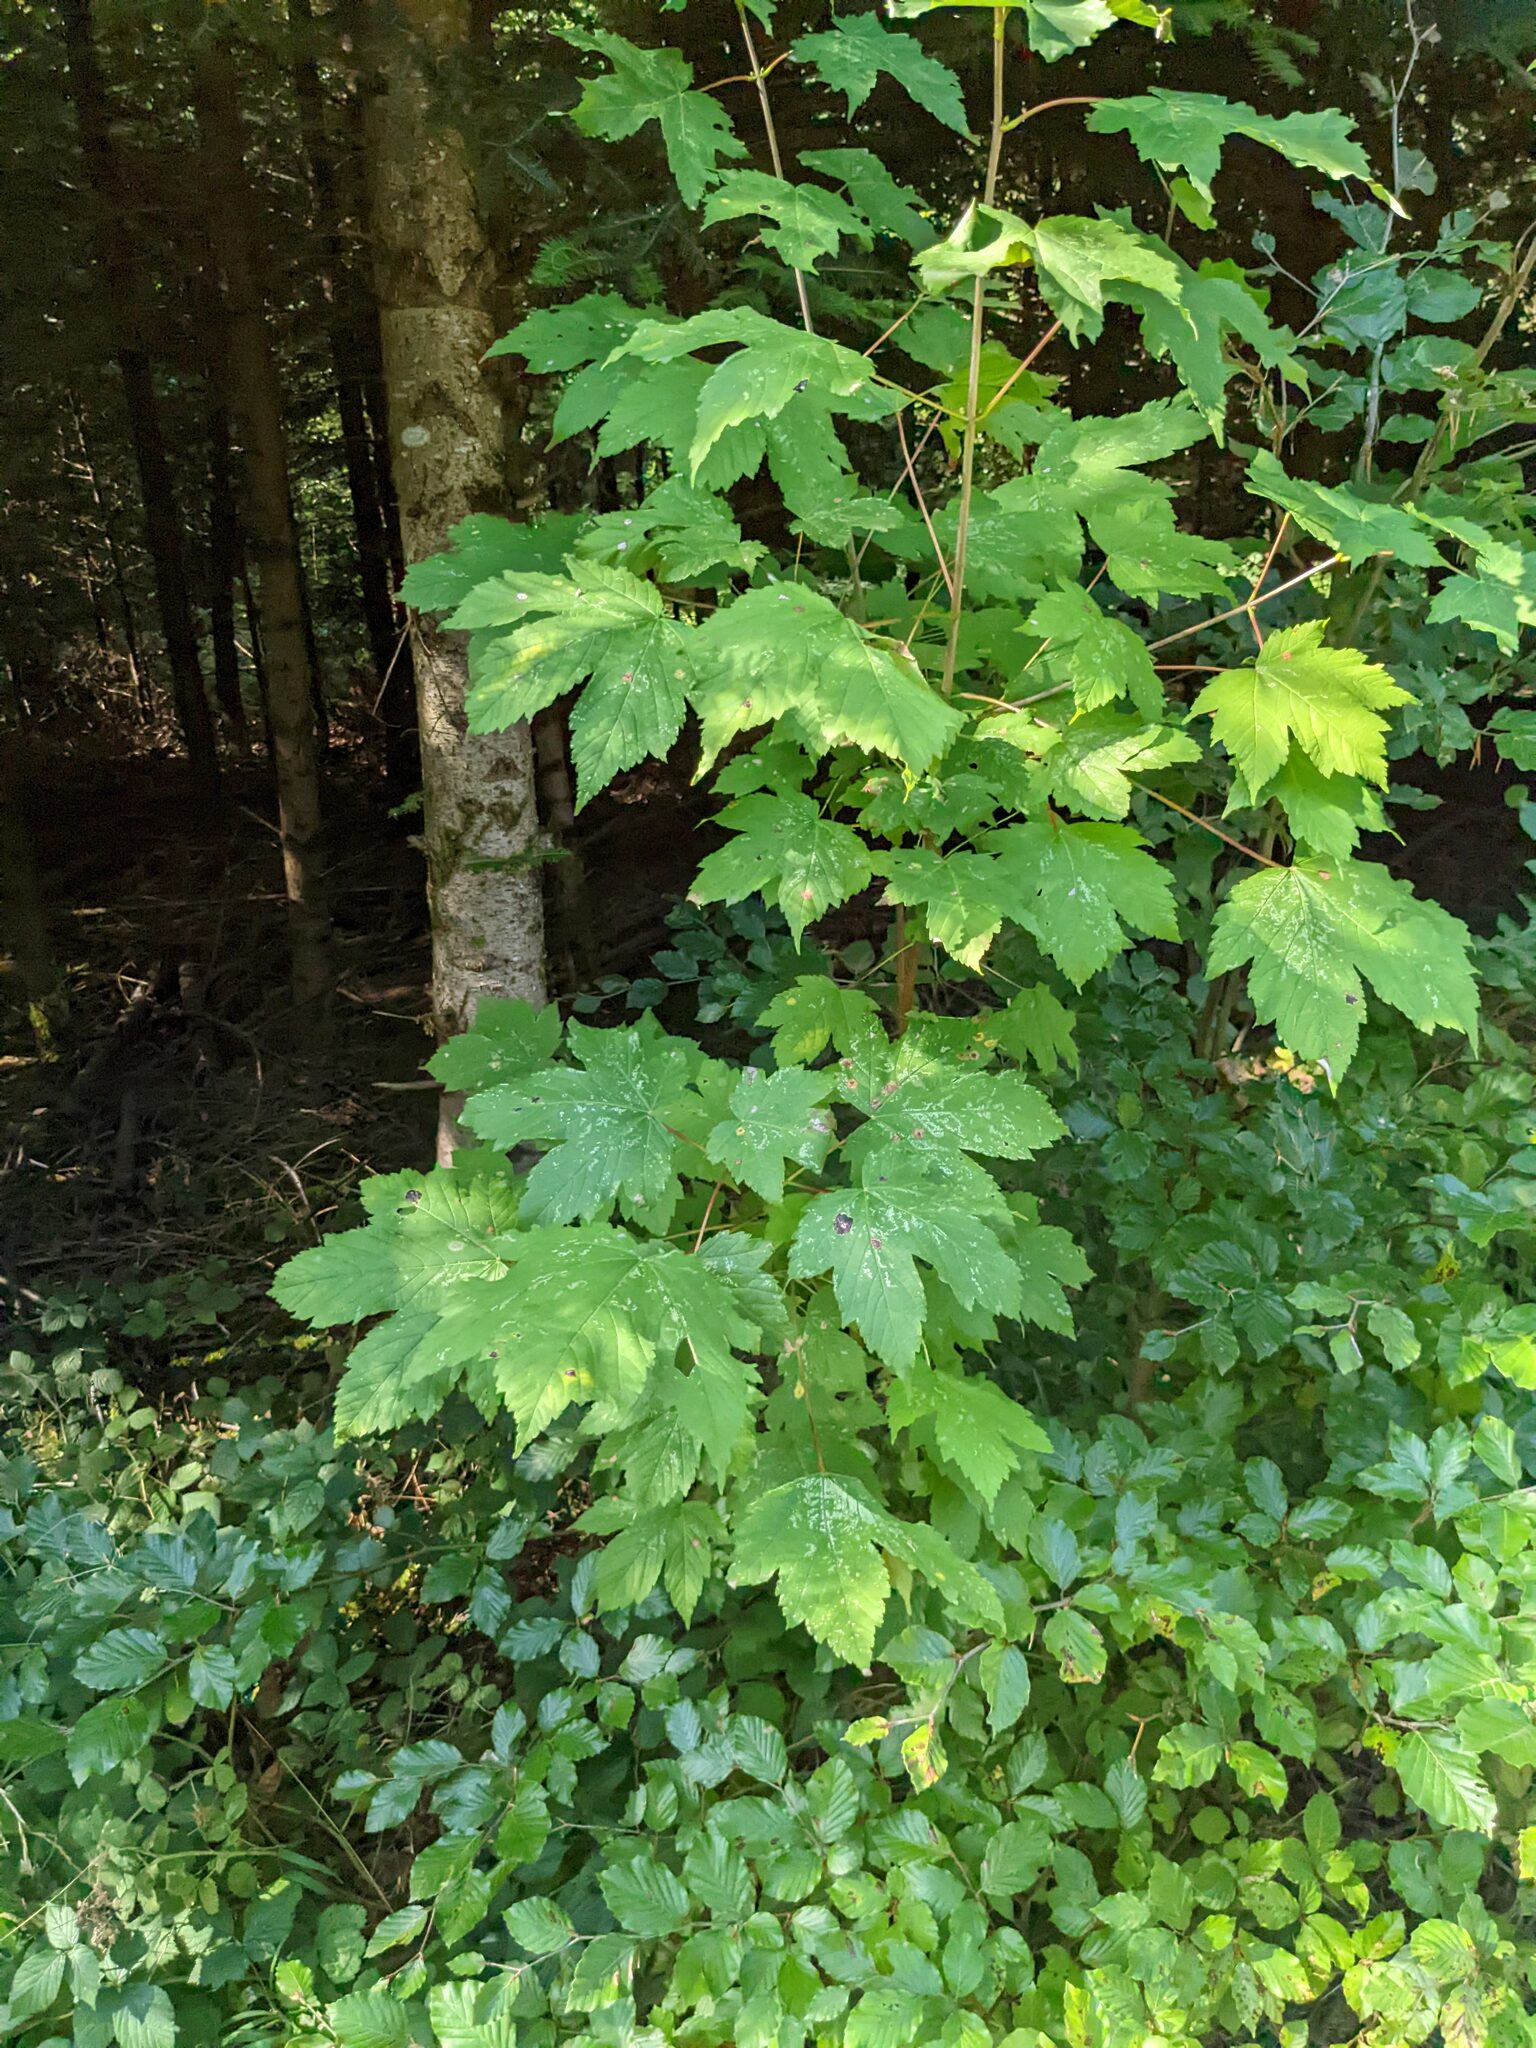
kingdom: Plantae
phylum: Tracheophyta
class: Magnoliopsida
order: Sapindales
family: Sapindaceae
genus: Acer
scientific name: Acer pseudoplatanus
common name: Sycamore
